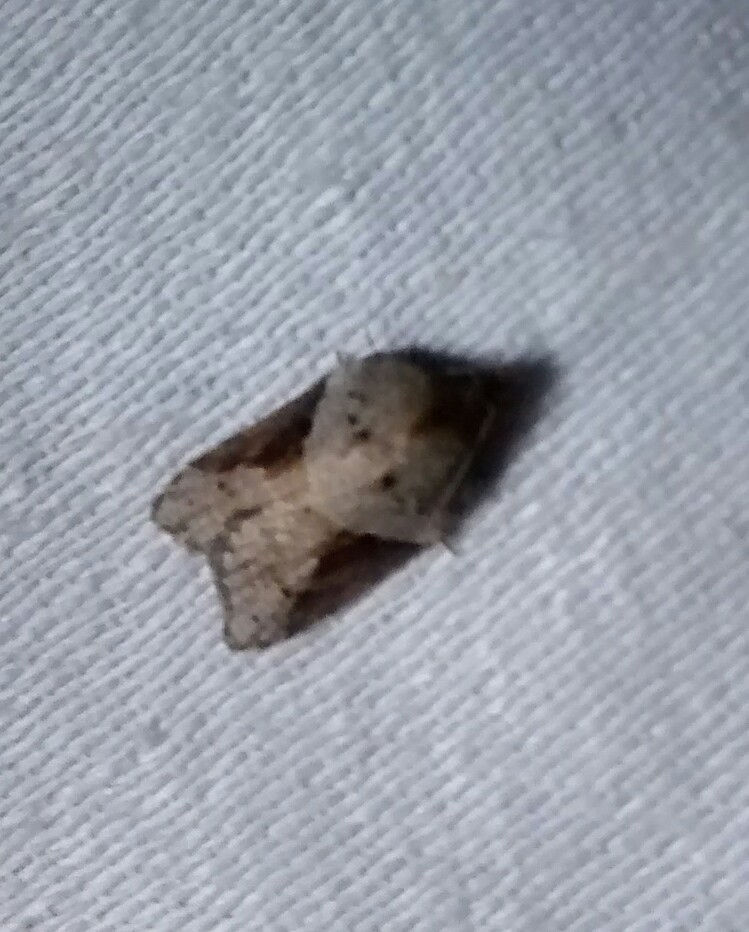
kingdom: Animalia
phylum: Arthropoda
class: Insecta
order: Lepidoptera
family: Tortricidae
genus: Acleris
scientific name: Acleris macdunnoughi
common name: Macdunnough's acleris
